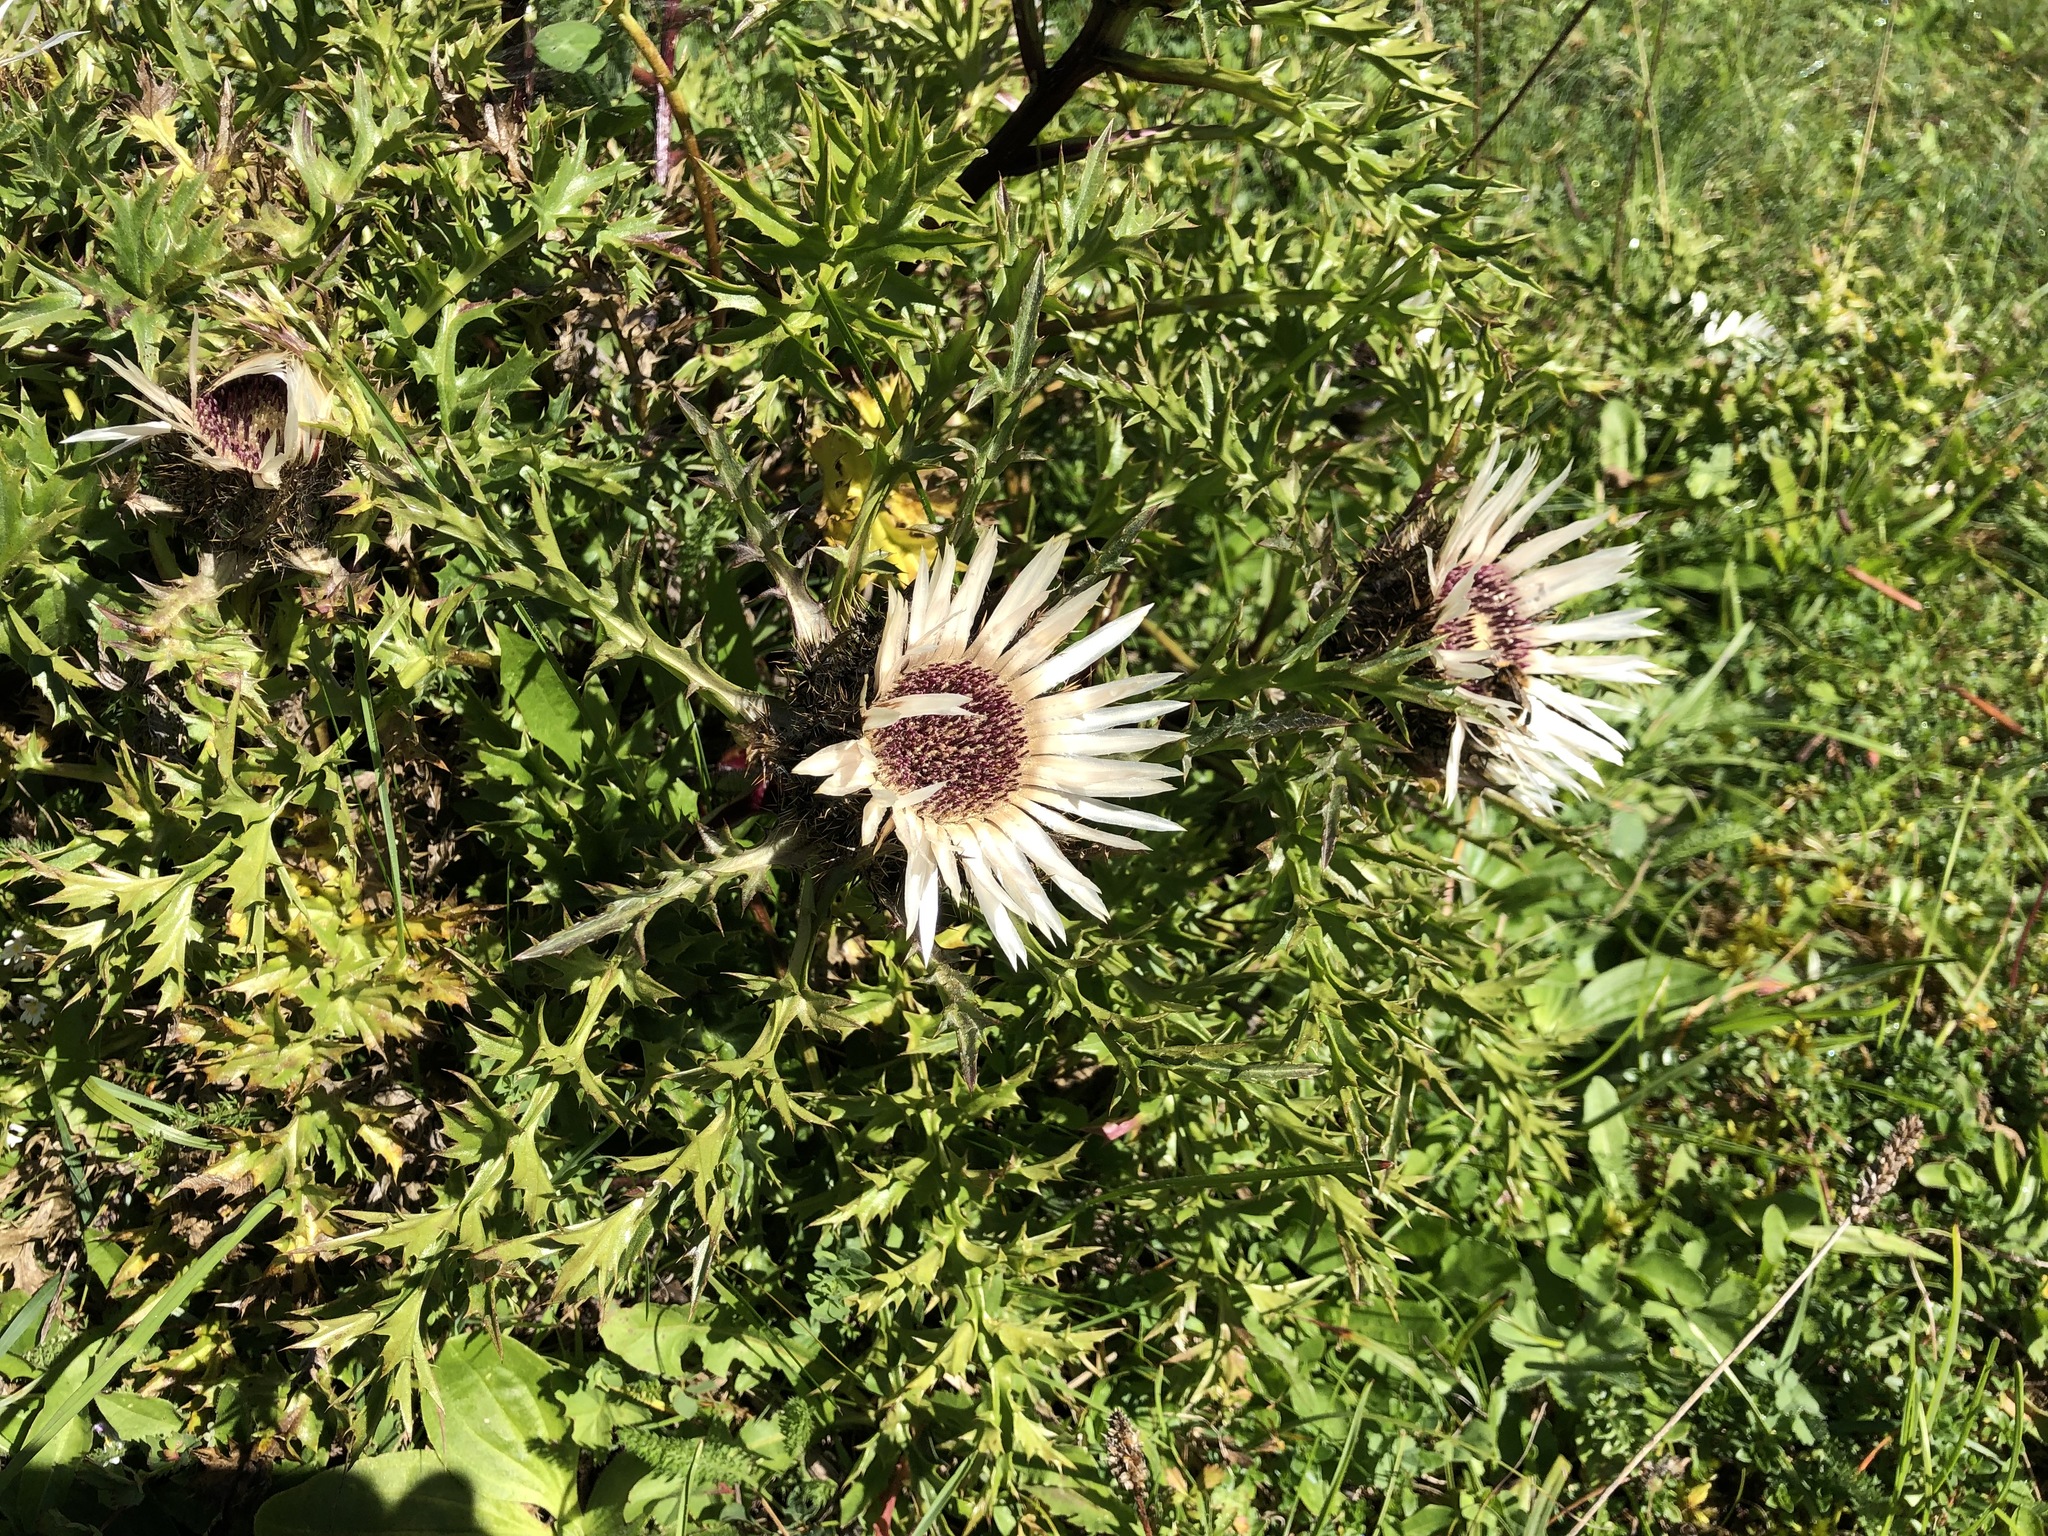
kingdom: Plantae
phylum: Tracheophyta
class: Magnoliopsida
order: Asterales
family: Asteraceae
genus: Carlina
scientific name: Carlina acaulis
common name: Stemless carline thistle
